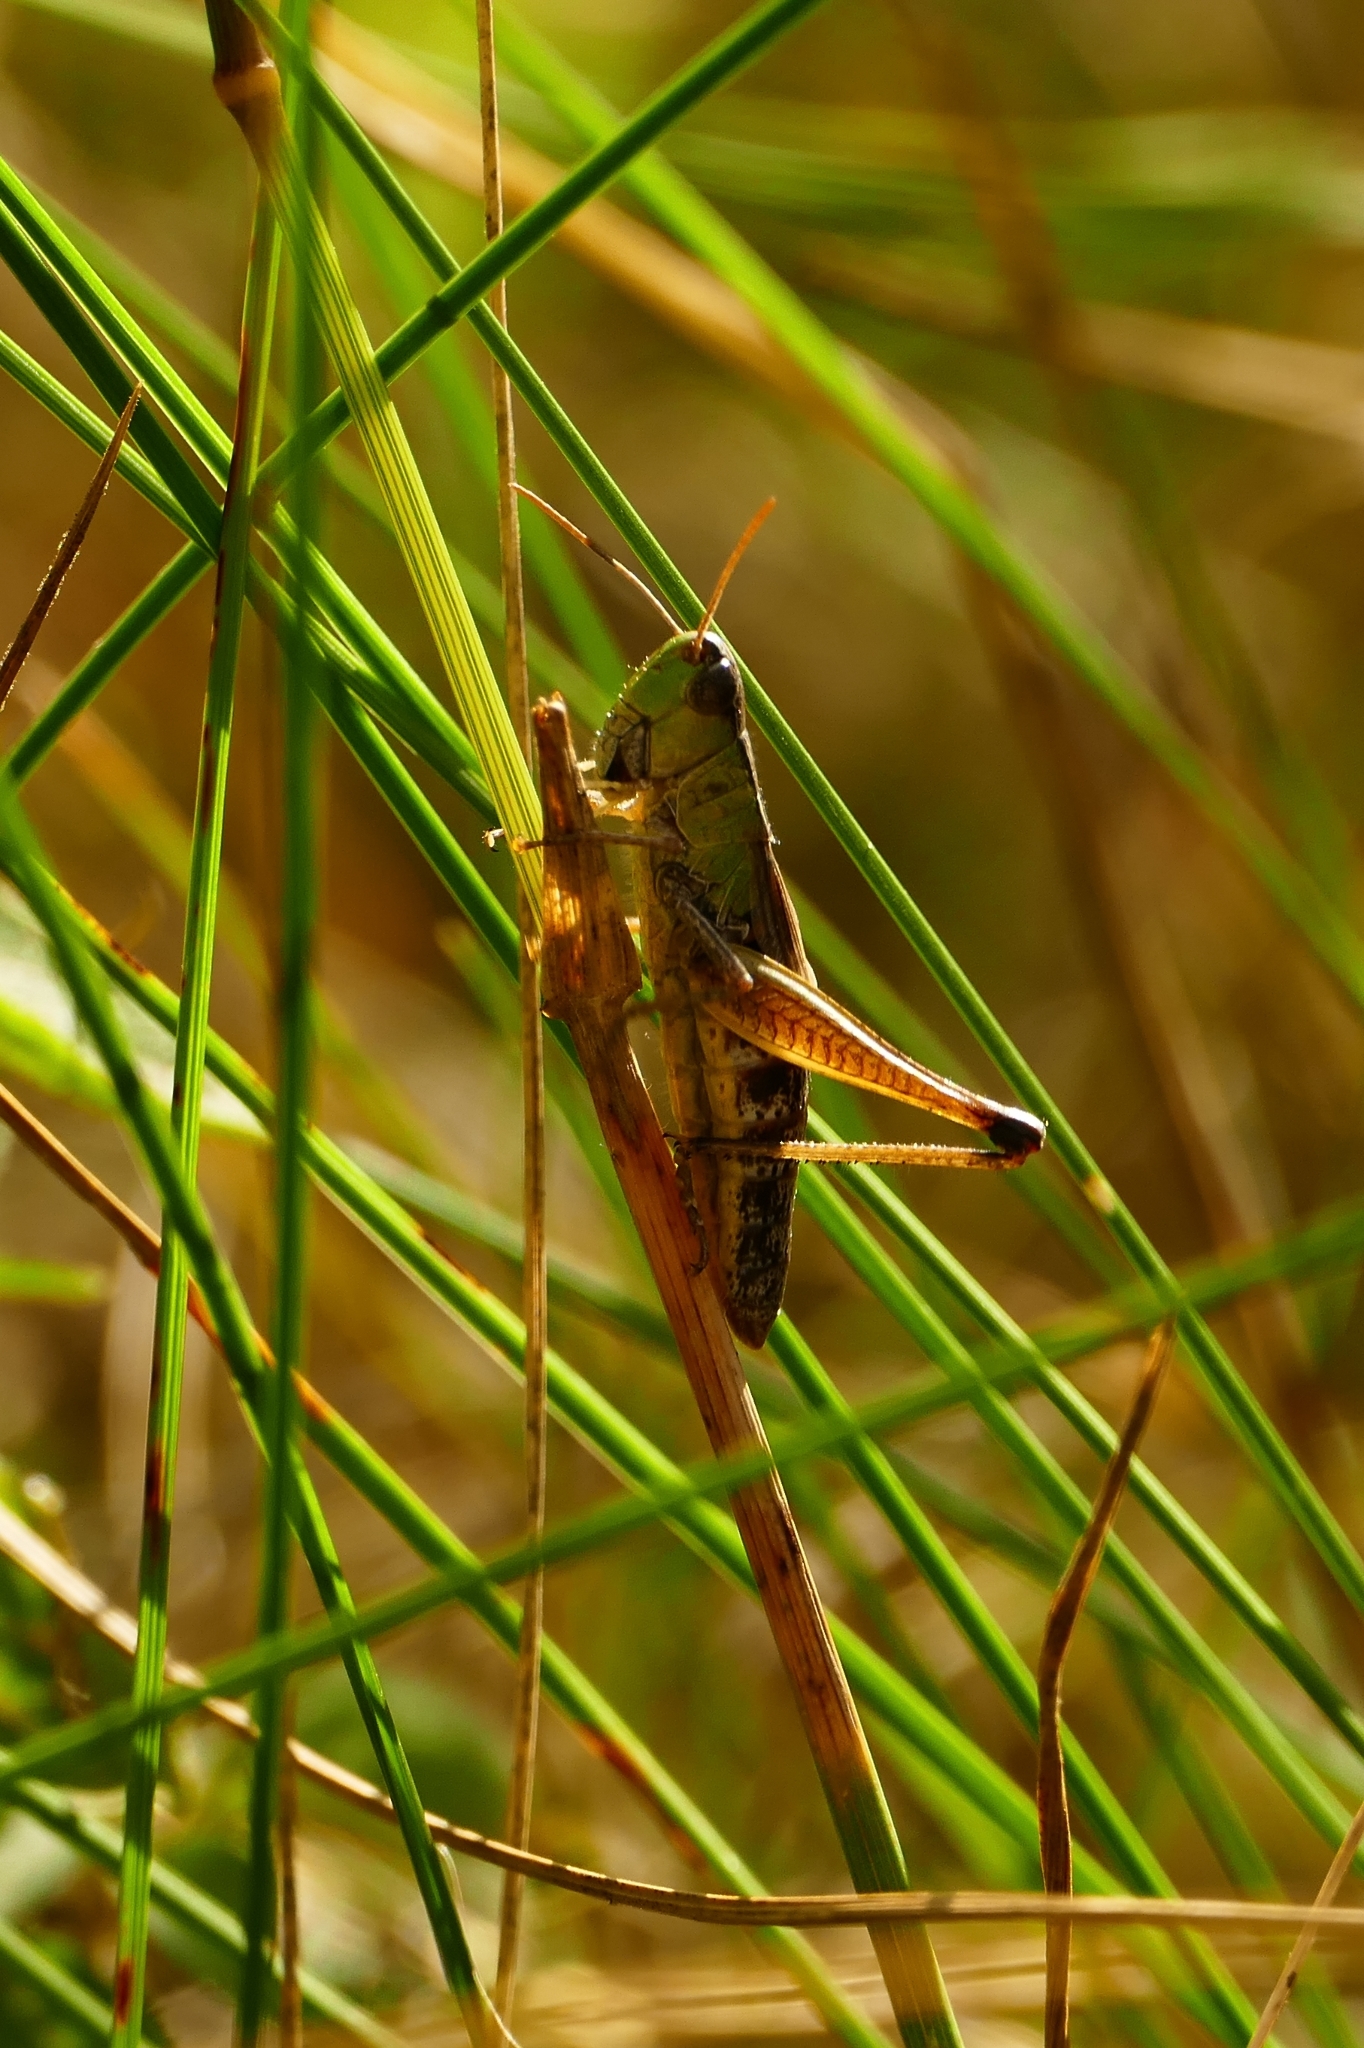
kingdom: Animalia
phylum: Arthropoda
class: Insecta
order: Orthoptera
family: Acrididae
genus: Pseudochorthippus
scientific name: Pseudochorthippus parallelus
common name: Meadow grasshopper
